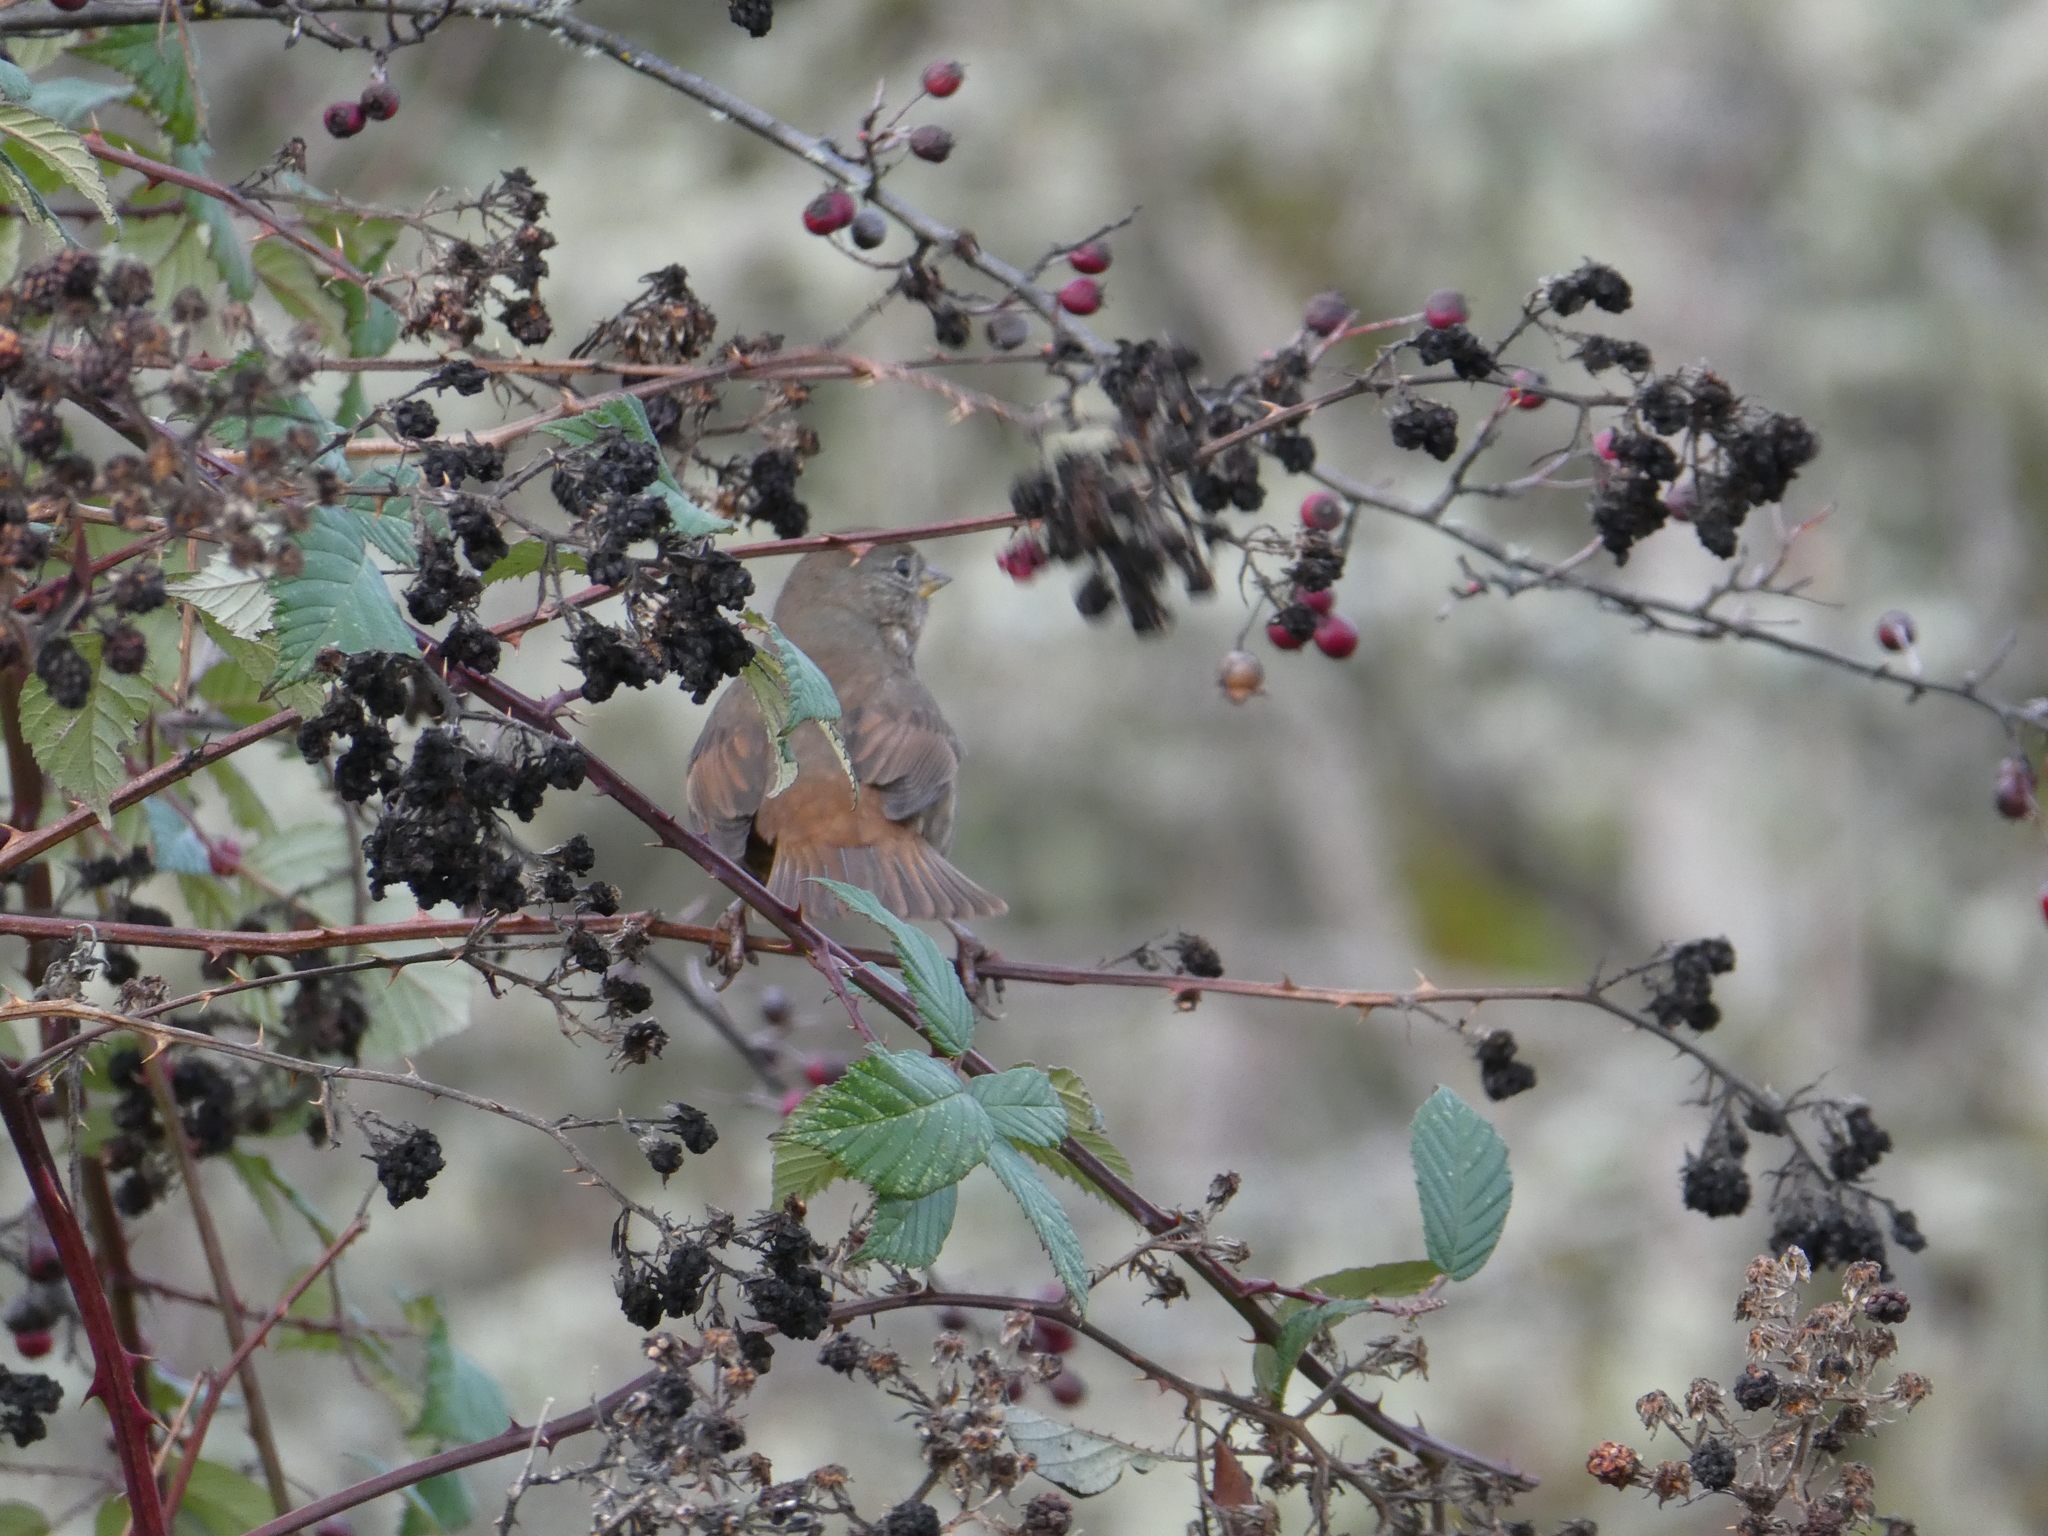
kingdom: Animalia
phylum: Chordata
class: Aves
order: Passeriformes
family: Passerellidae
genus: Passerella
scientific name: Passerella iliaca
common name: Fox sparrow
